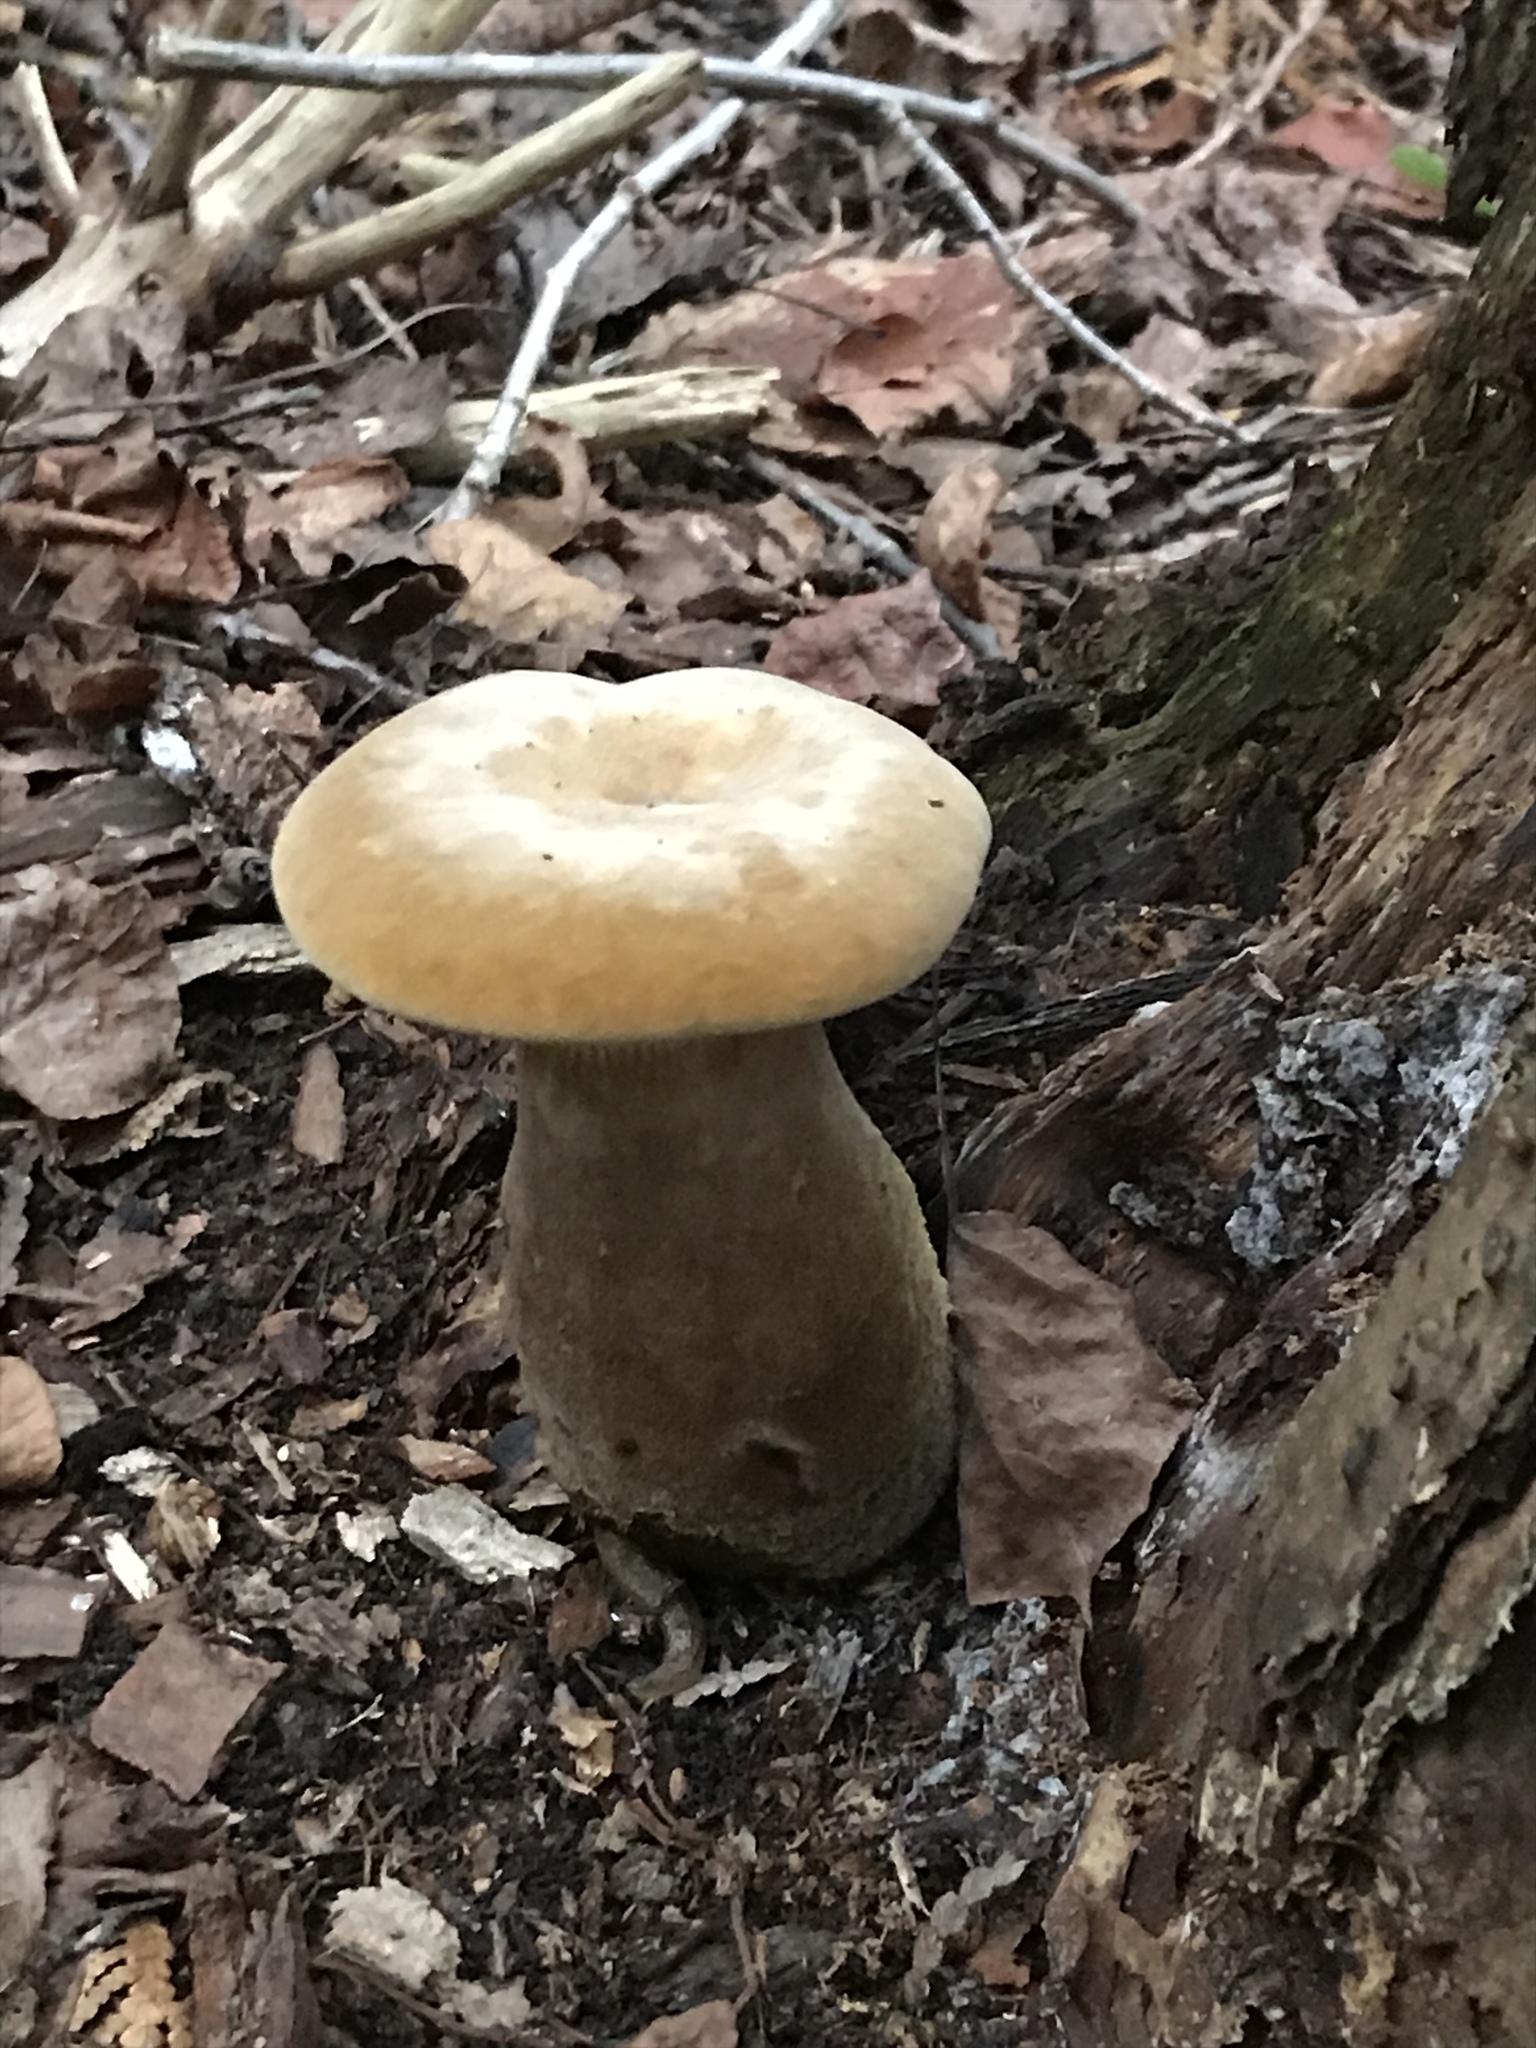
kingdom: Fungi
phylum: Basidiomycota
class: Agaricomycetes
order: Boletales
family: Tapinellaceae
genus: Tapinella
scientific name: Tapinella atrotomentosa
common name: Velvet rollrim
